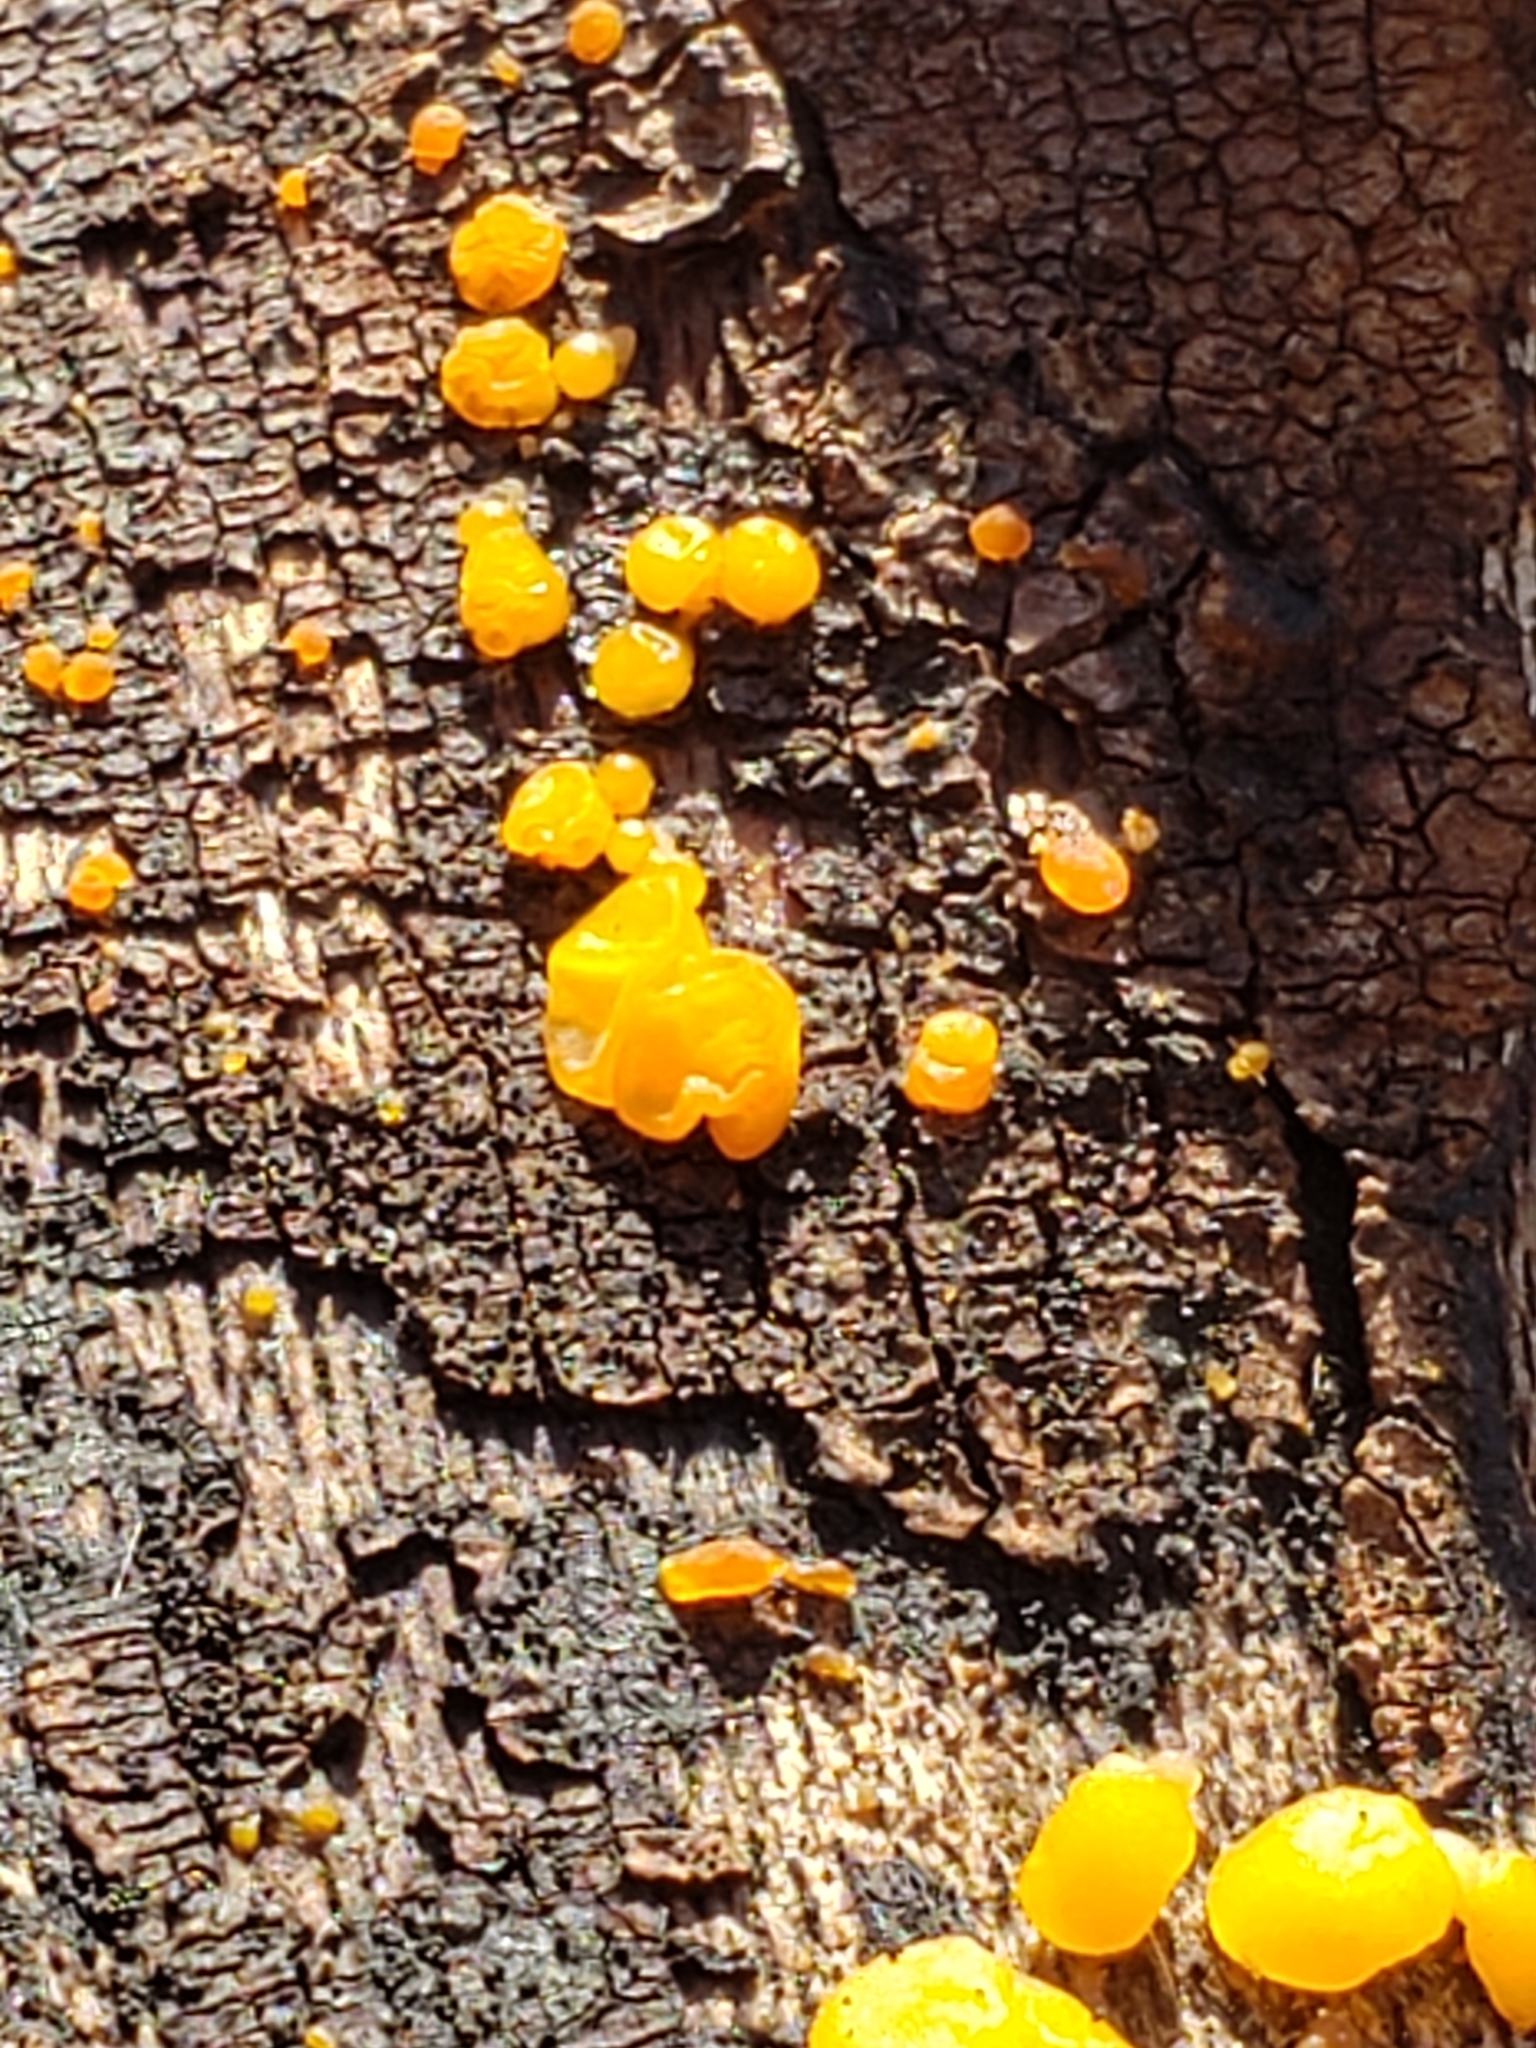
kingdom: Fungi
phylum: Basidiomycota
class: Dacrymycetes
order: Dacrymycetales
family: Dacrymycetaceae
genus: Dacrymyces
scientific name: Dacrymyces stillatus
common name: Common jelly spot
